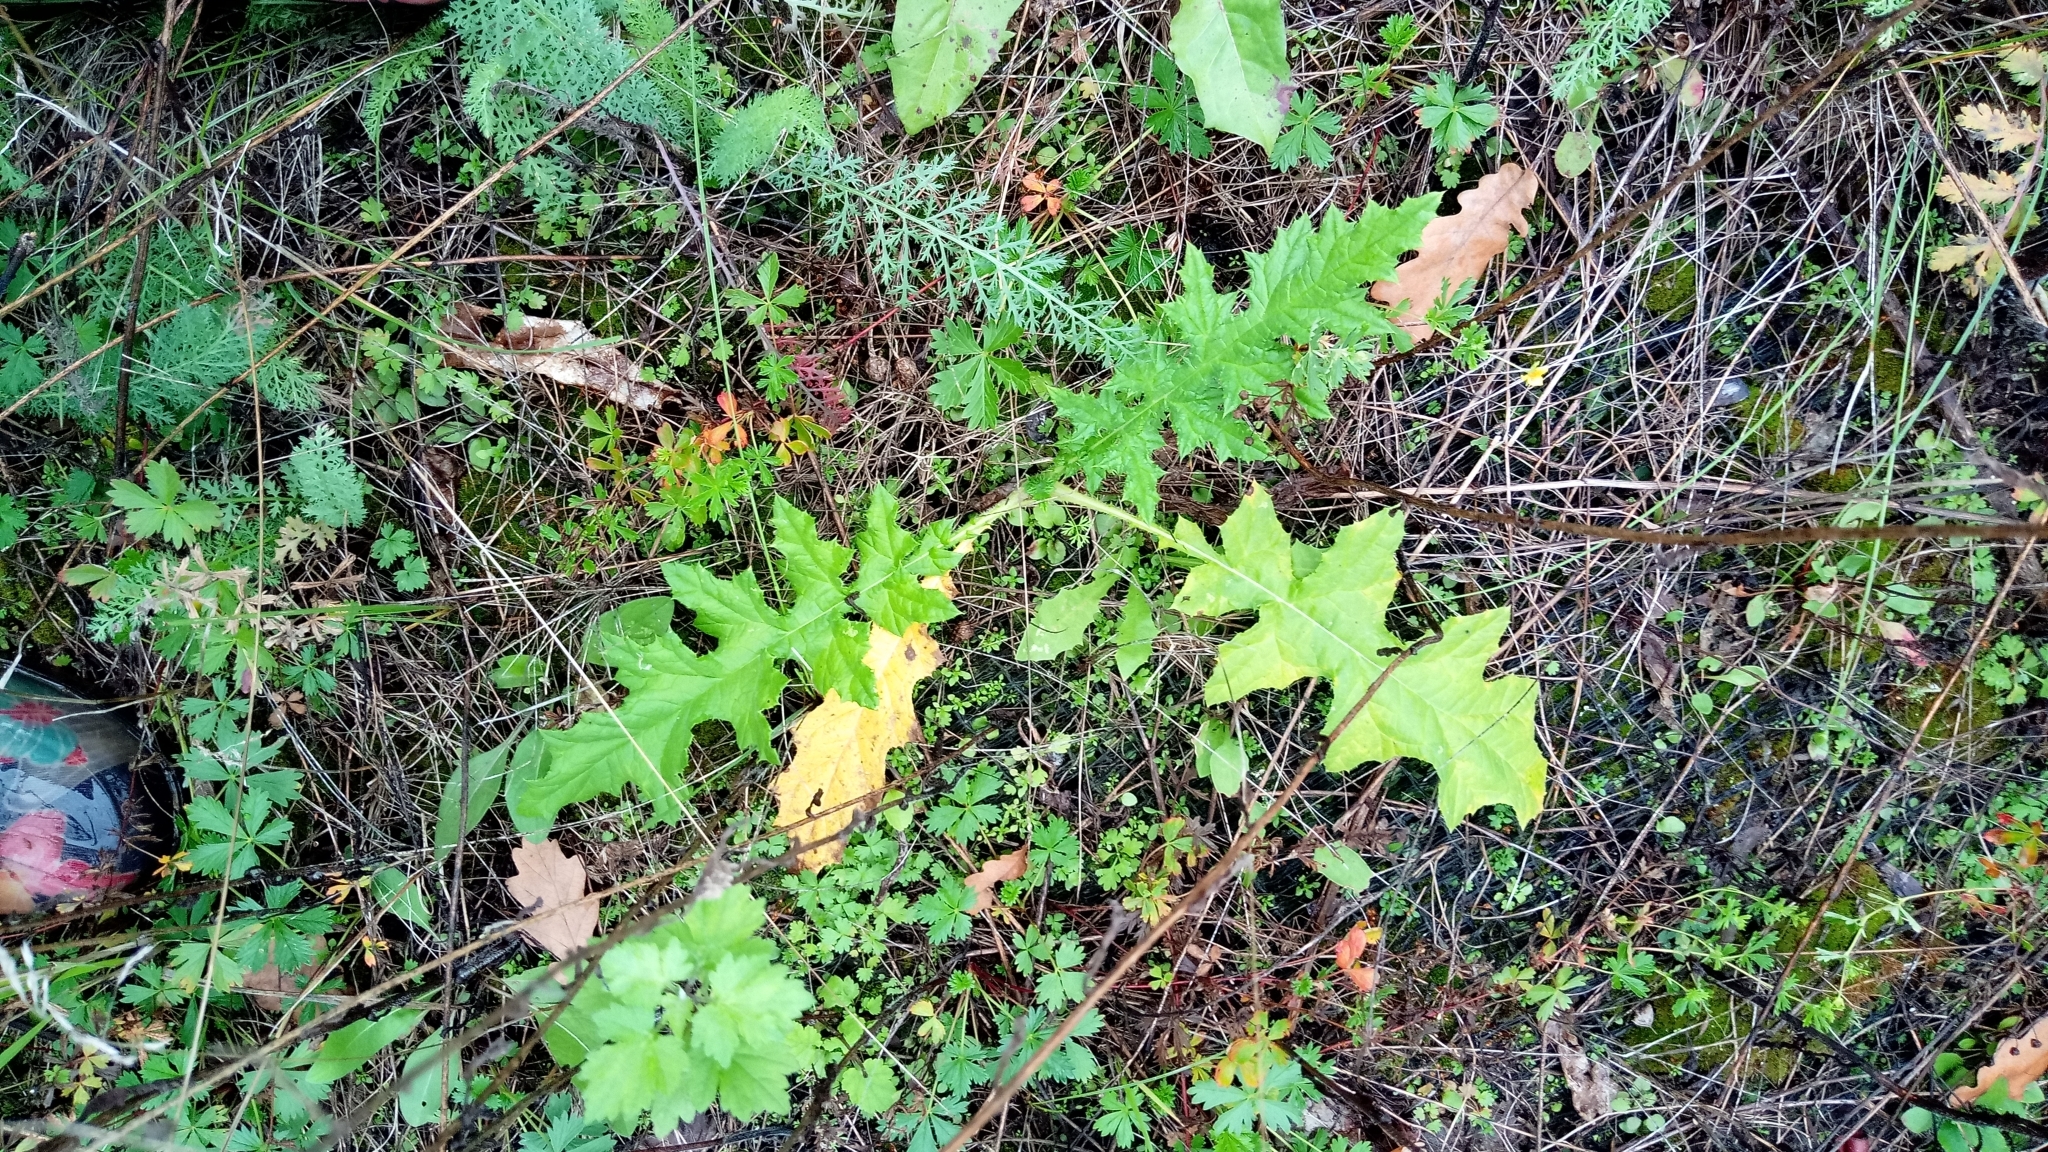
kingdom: Plantae
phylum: Tracheophyta
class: Magnoliopsida
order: Asterales
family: Asteraceae
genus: Echinops
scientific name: Echinops sphaerocephalus
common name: Glandular globe-thistle
